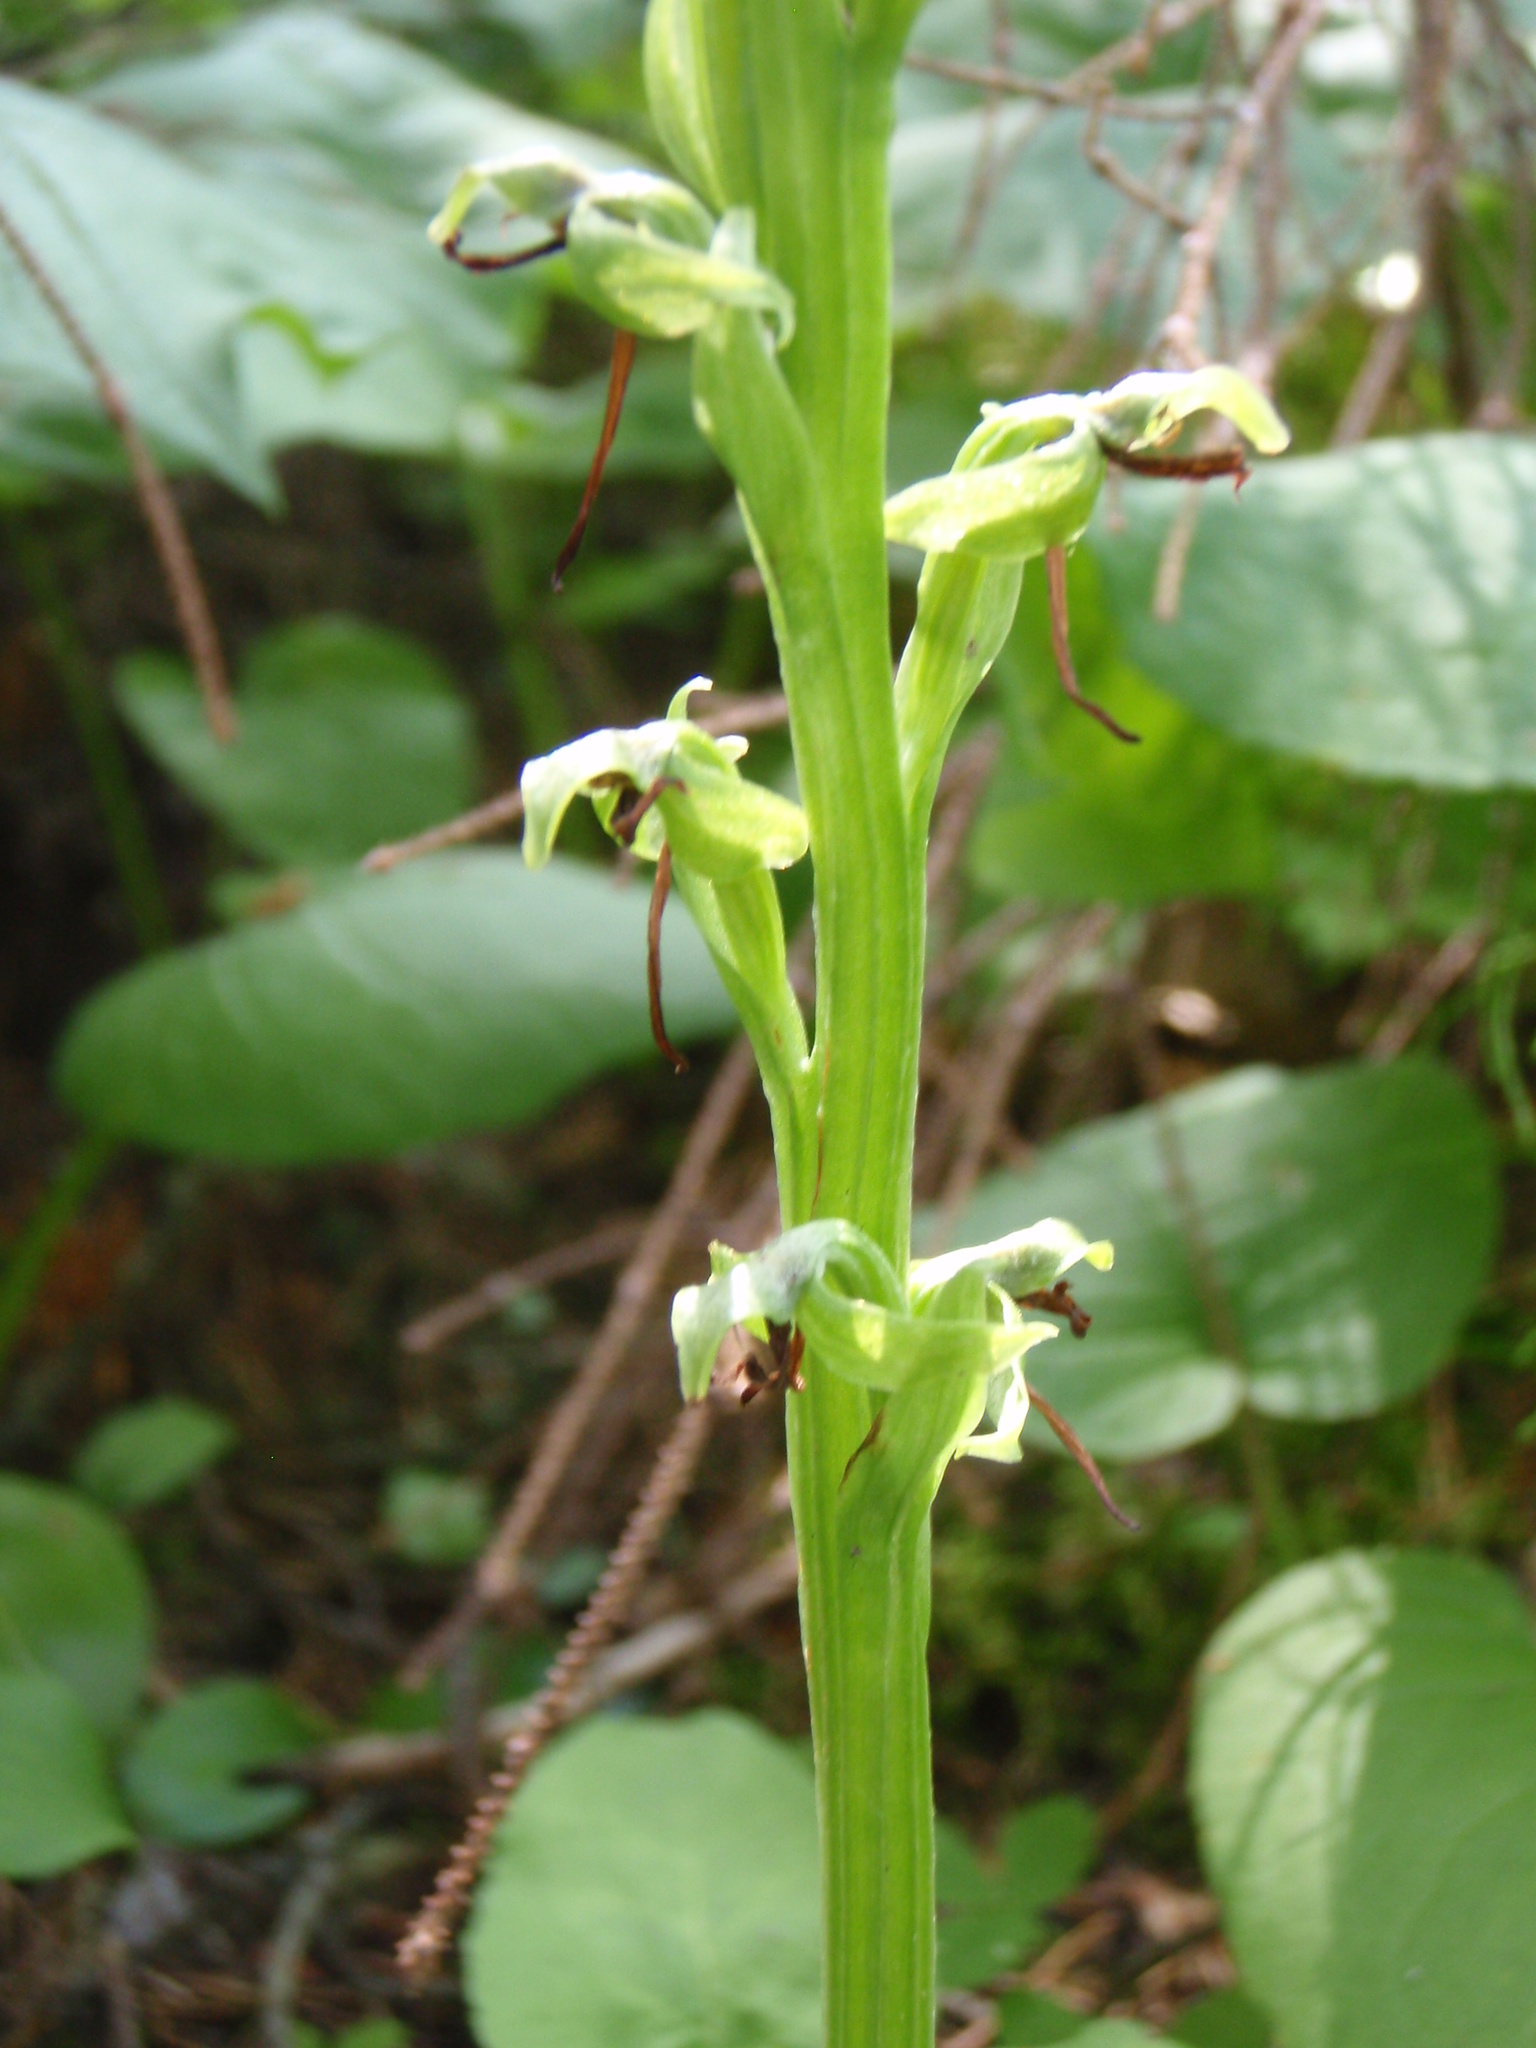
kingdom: Plantae
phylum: Tracheophyta
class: Liliopsida
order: Asparagales
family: Orchidaceae
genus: Platanthera
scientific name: Platanthera hookeri
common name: Hooker's orchid
